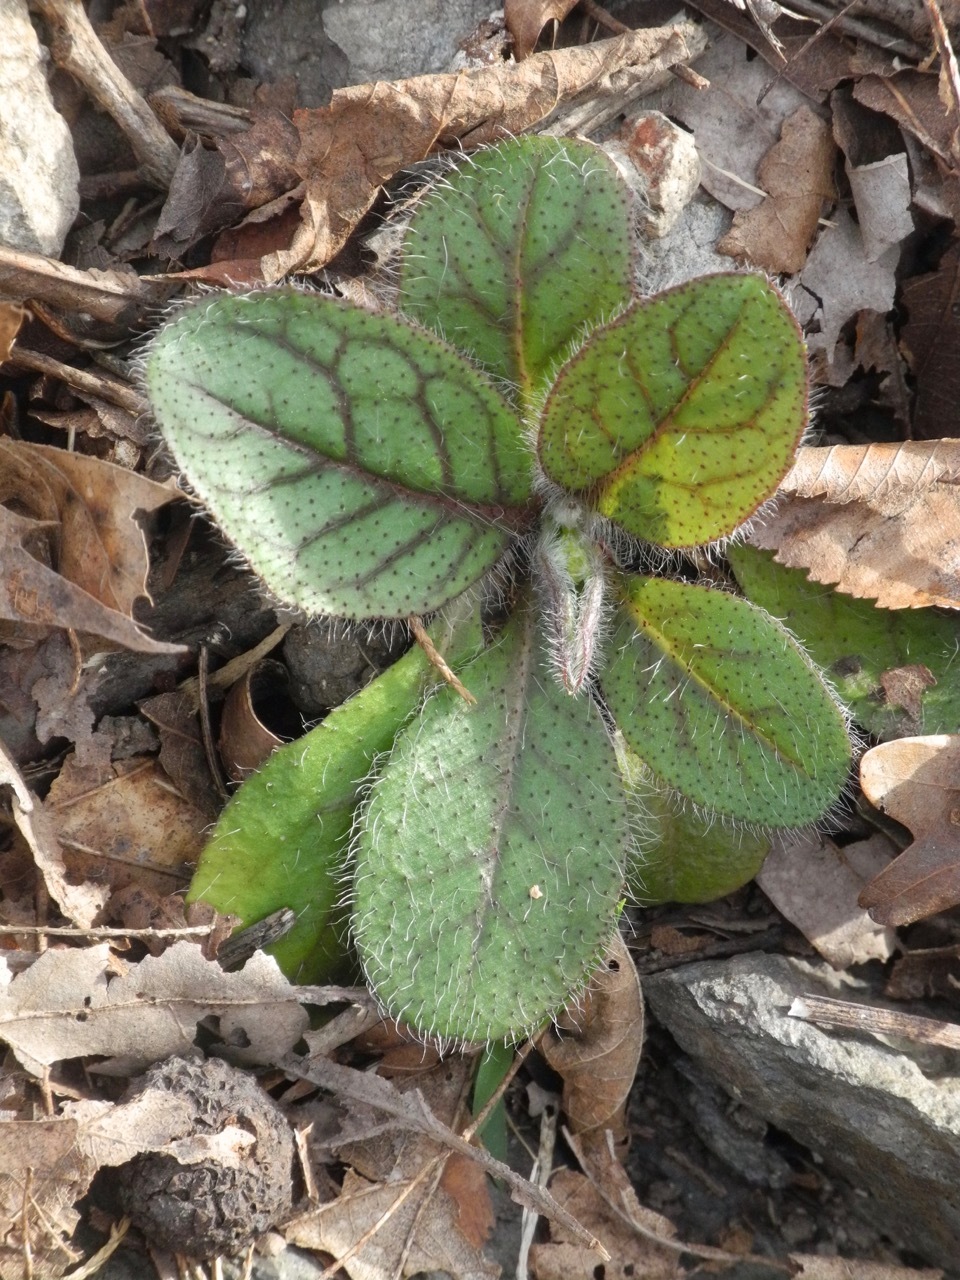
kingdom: Plantae
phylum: Tracheophyta
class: Magnoliopsida
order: Asterales
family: Asteraceae
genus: Hieracium
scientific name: Hieracium marianum
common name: Maryland hawkweed
